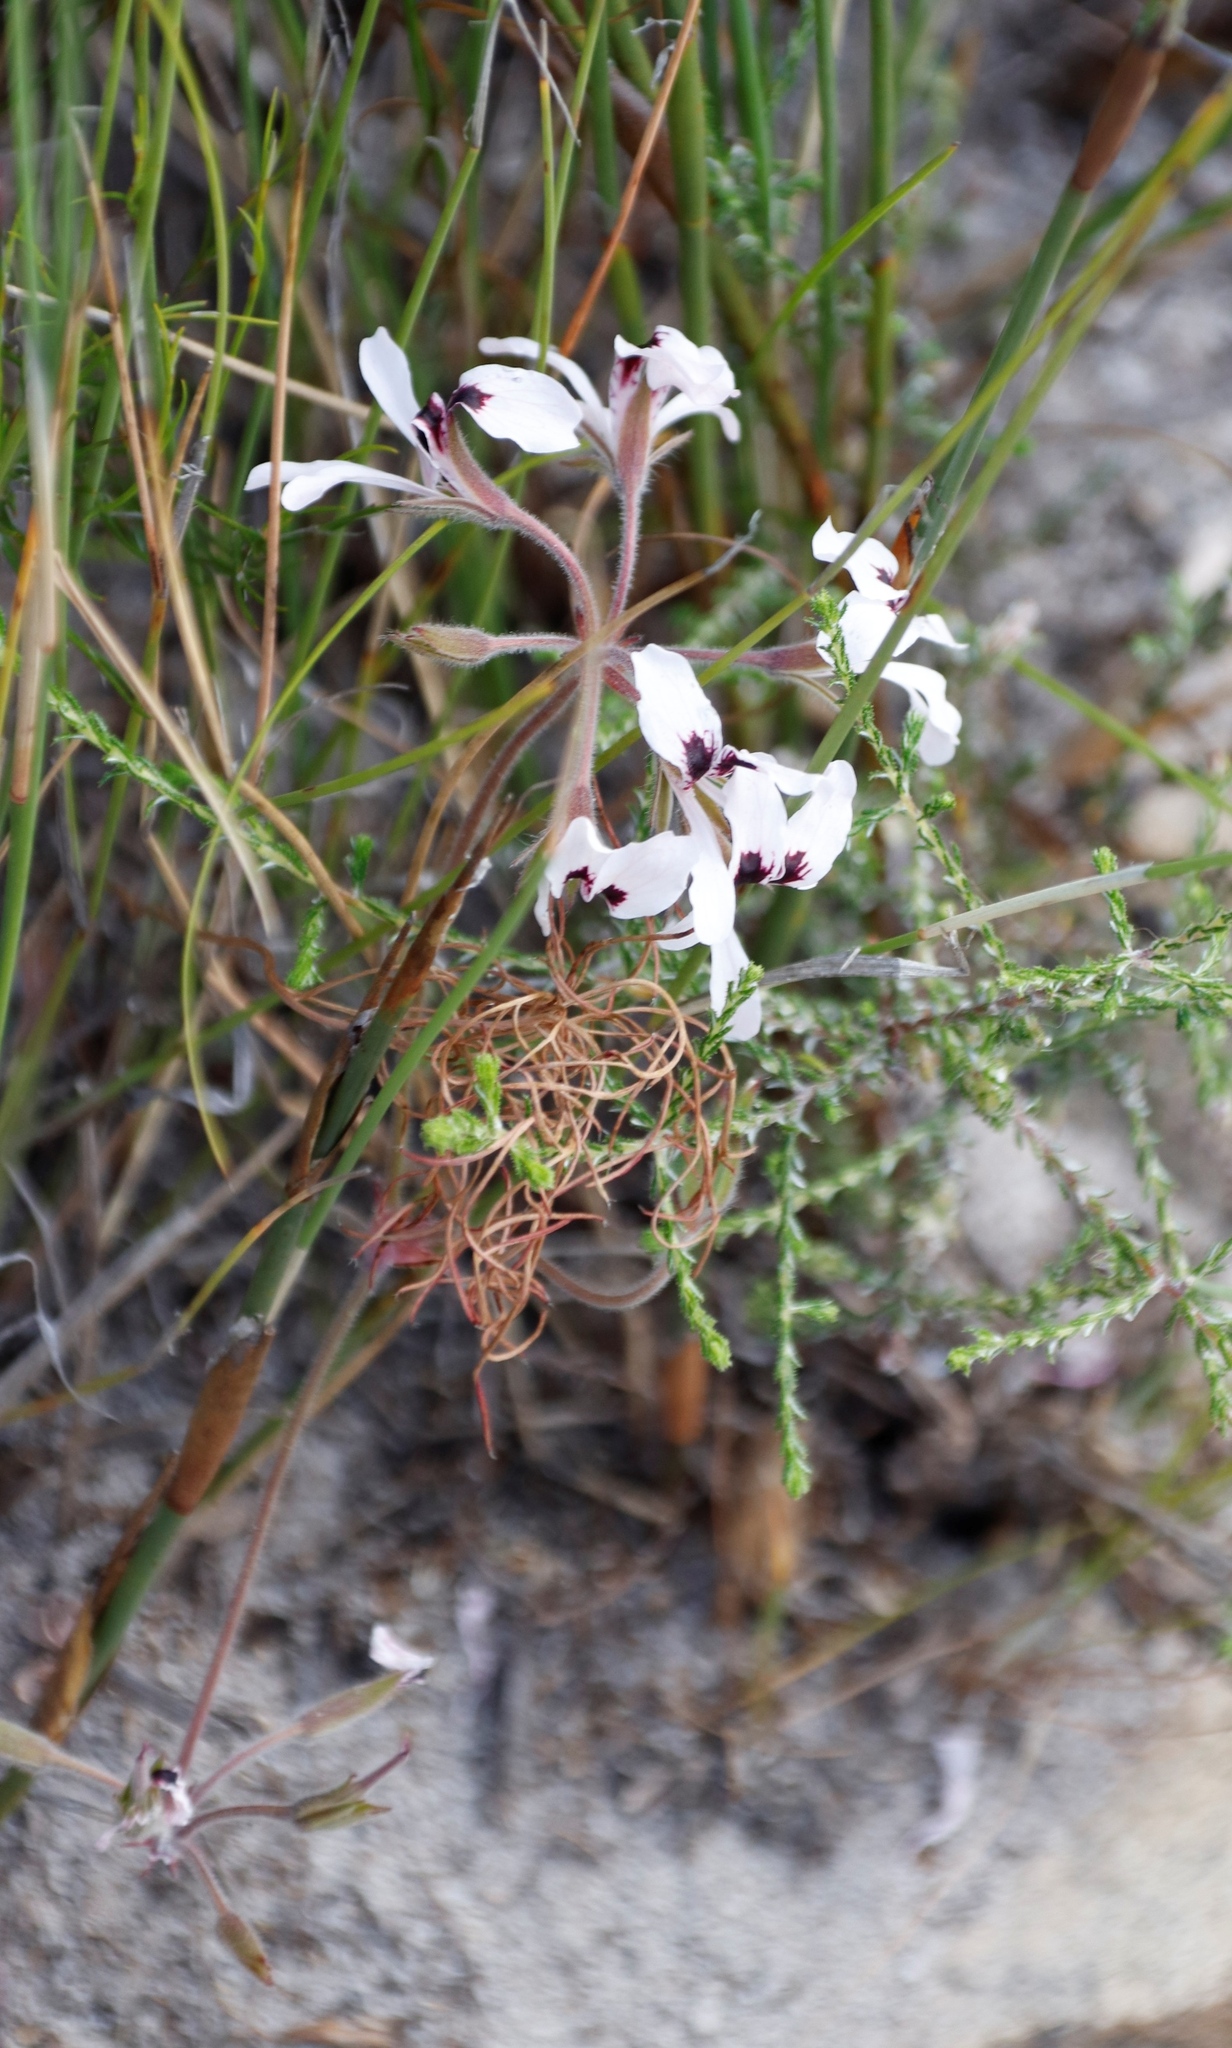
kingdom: Plantae
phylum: Tracheophyta
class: Magnoliopsida
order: Geraniales
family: Geraniaceae
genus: Pelargonium
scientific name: Pelargonium psammophilum
